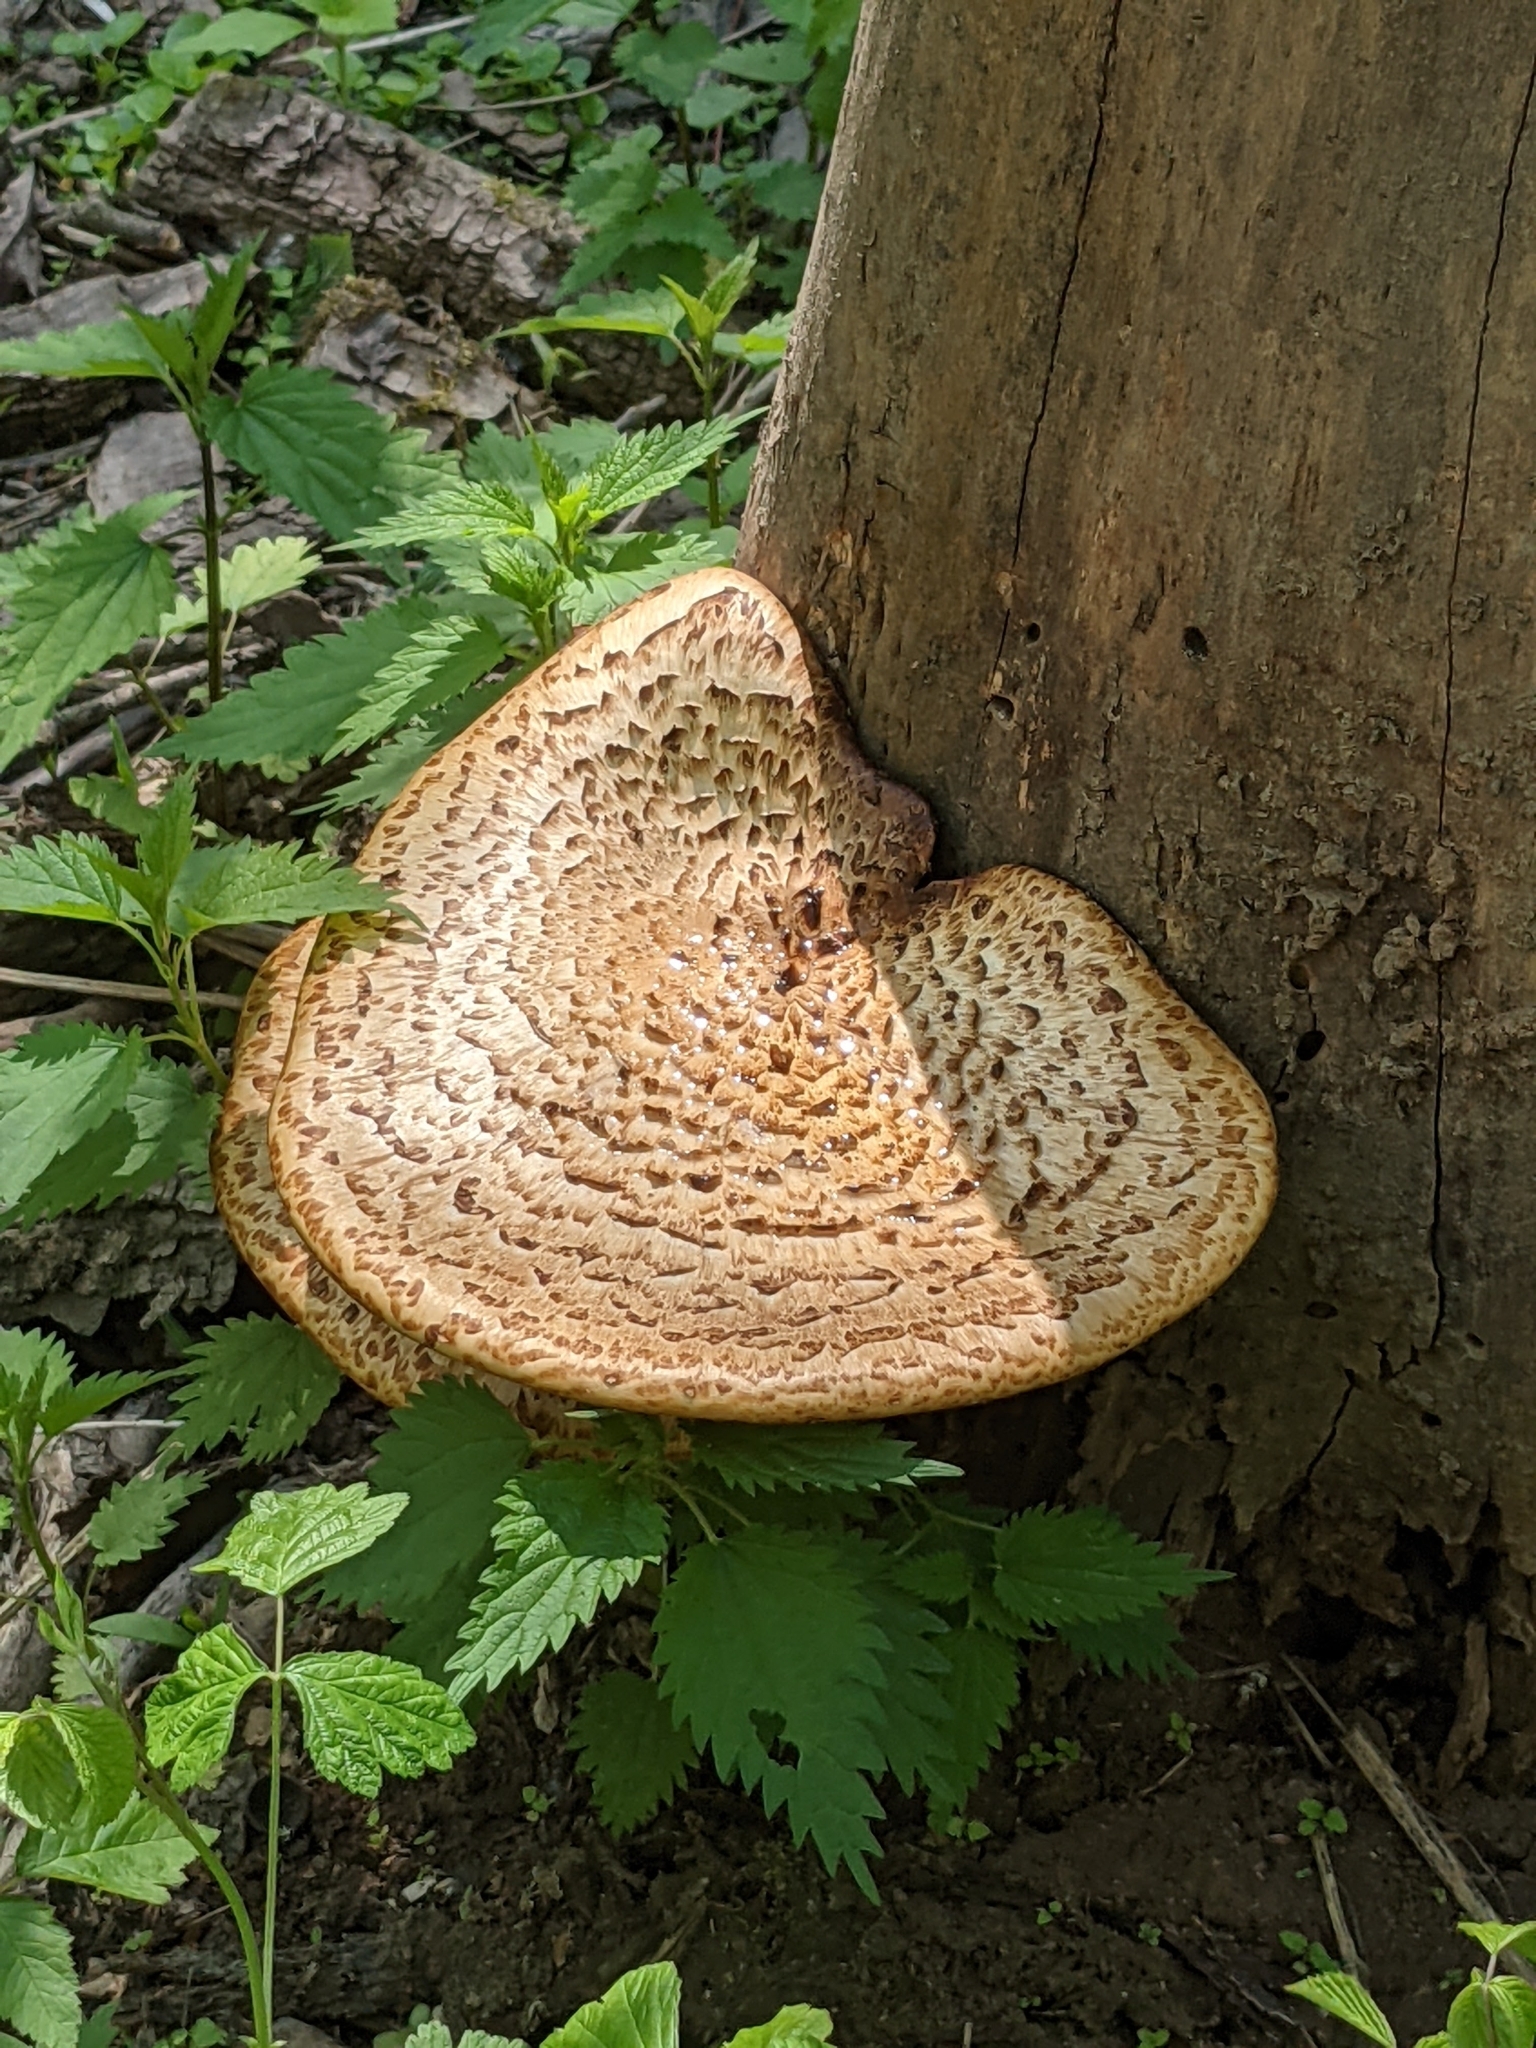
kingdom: Fungi
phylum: Basidiomycota
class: Agaricomycetes
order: Polyporales
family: Polyporaceae
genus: Cerioporus
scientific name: Cerioporus squamosus
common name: Dryad's saddle
